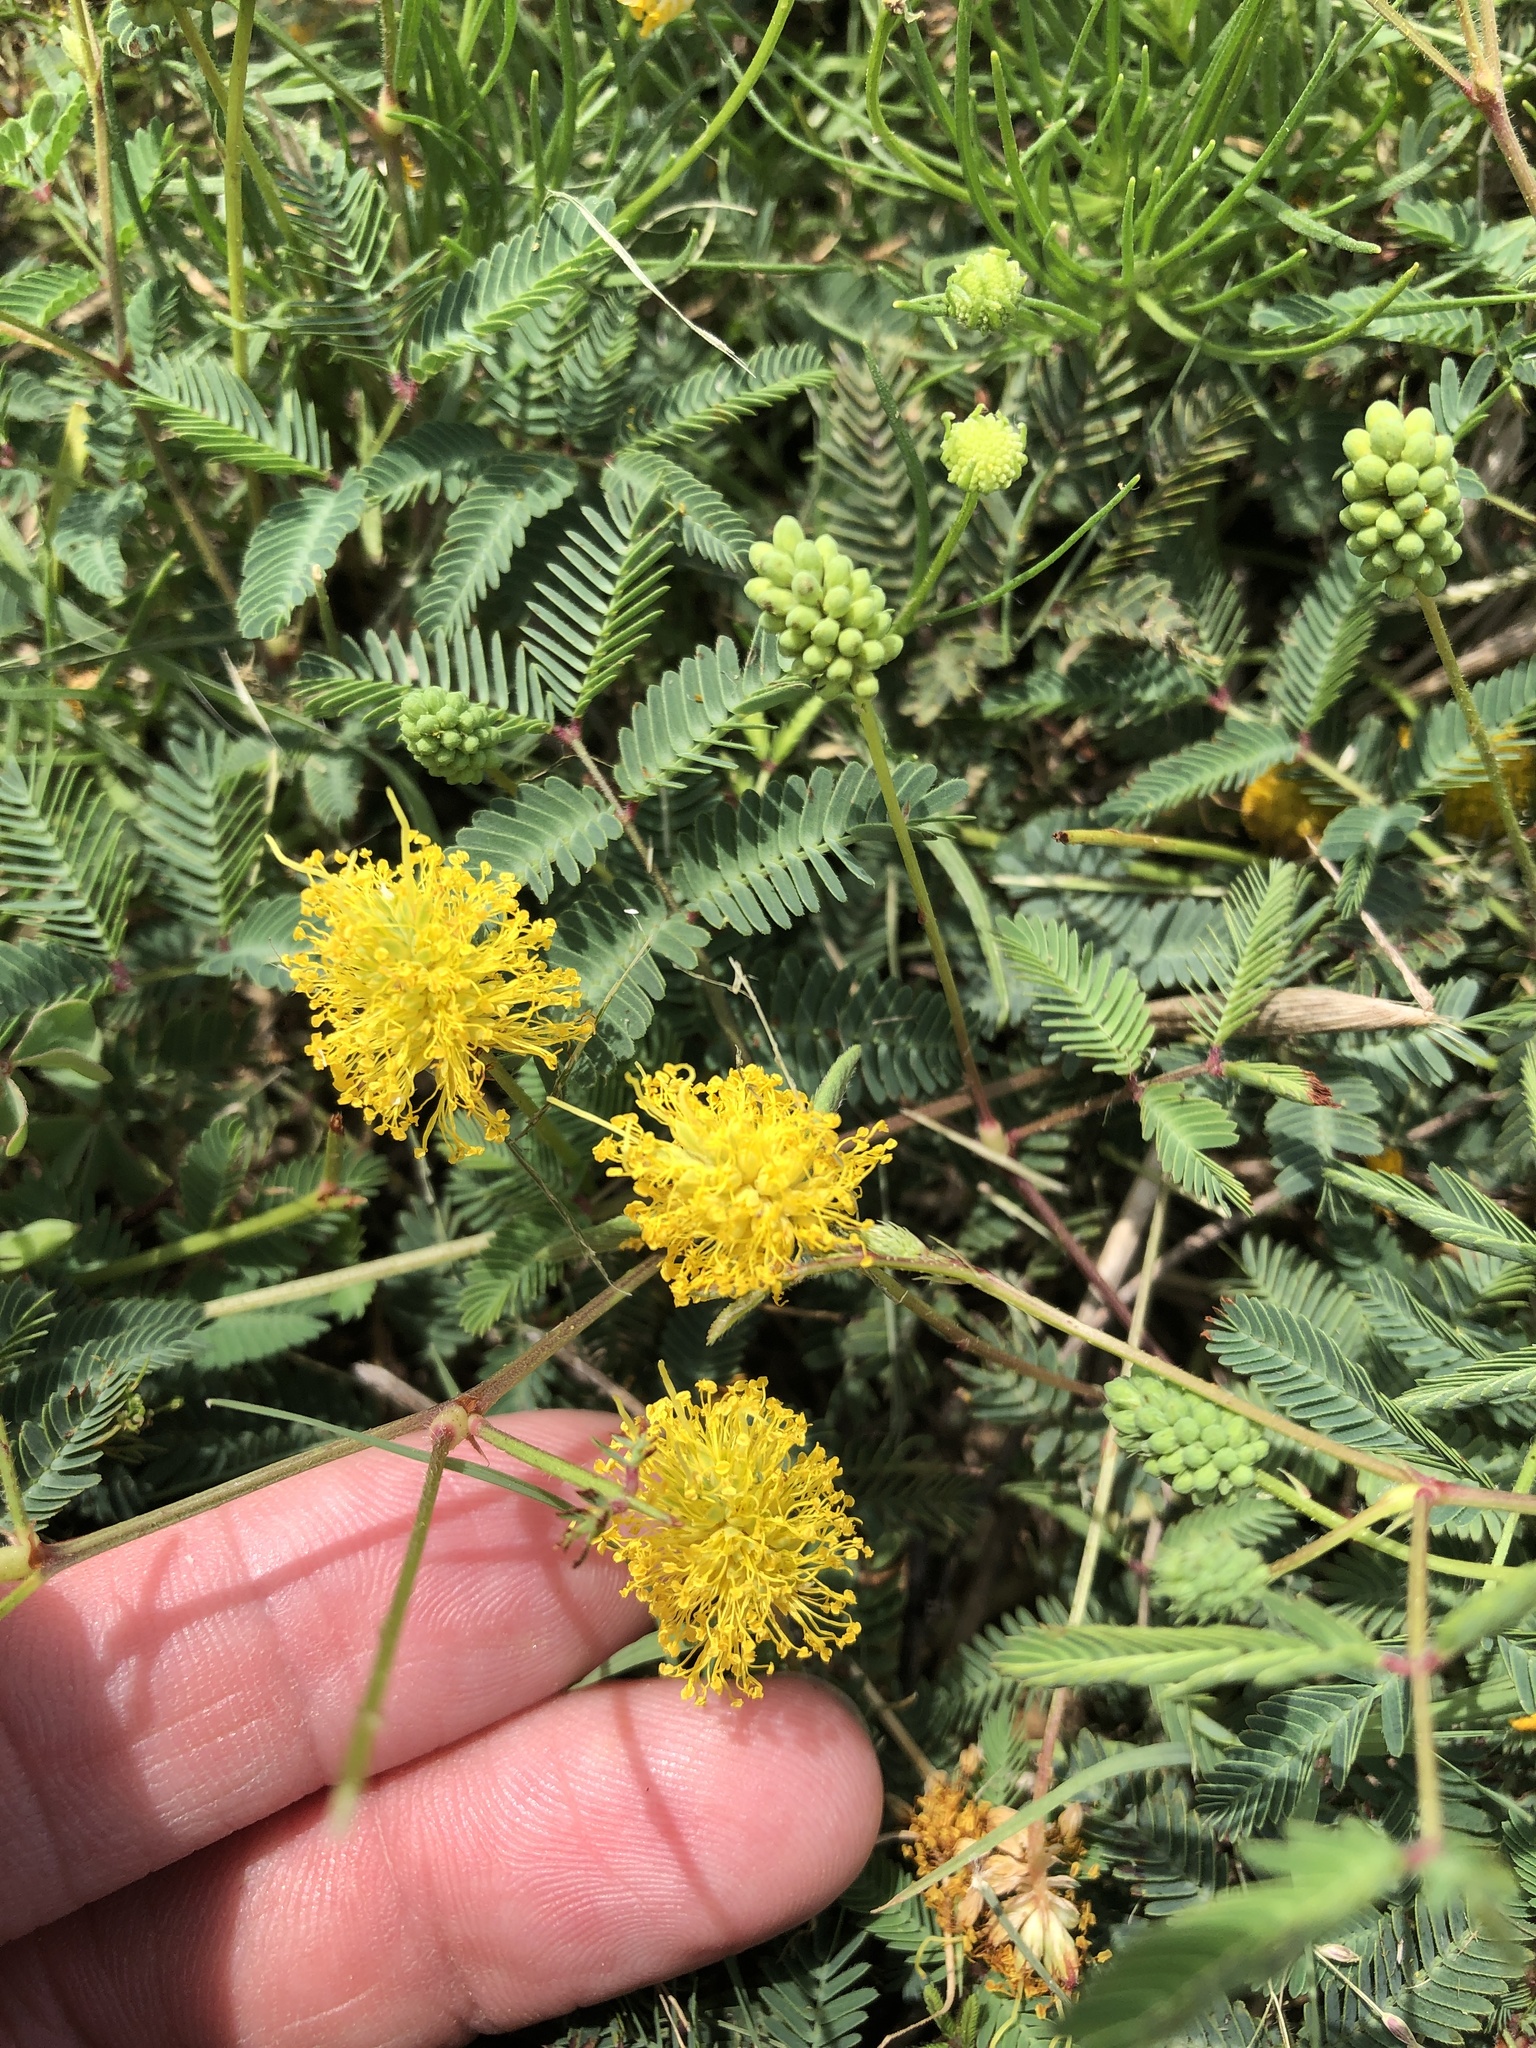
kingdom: Plantae
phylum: Tracheophyta
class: Magnoliopsida
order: Fabales
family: Fabaceae
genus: Neptunia
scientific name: Neptunia lutea
